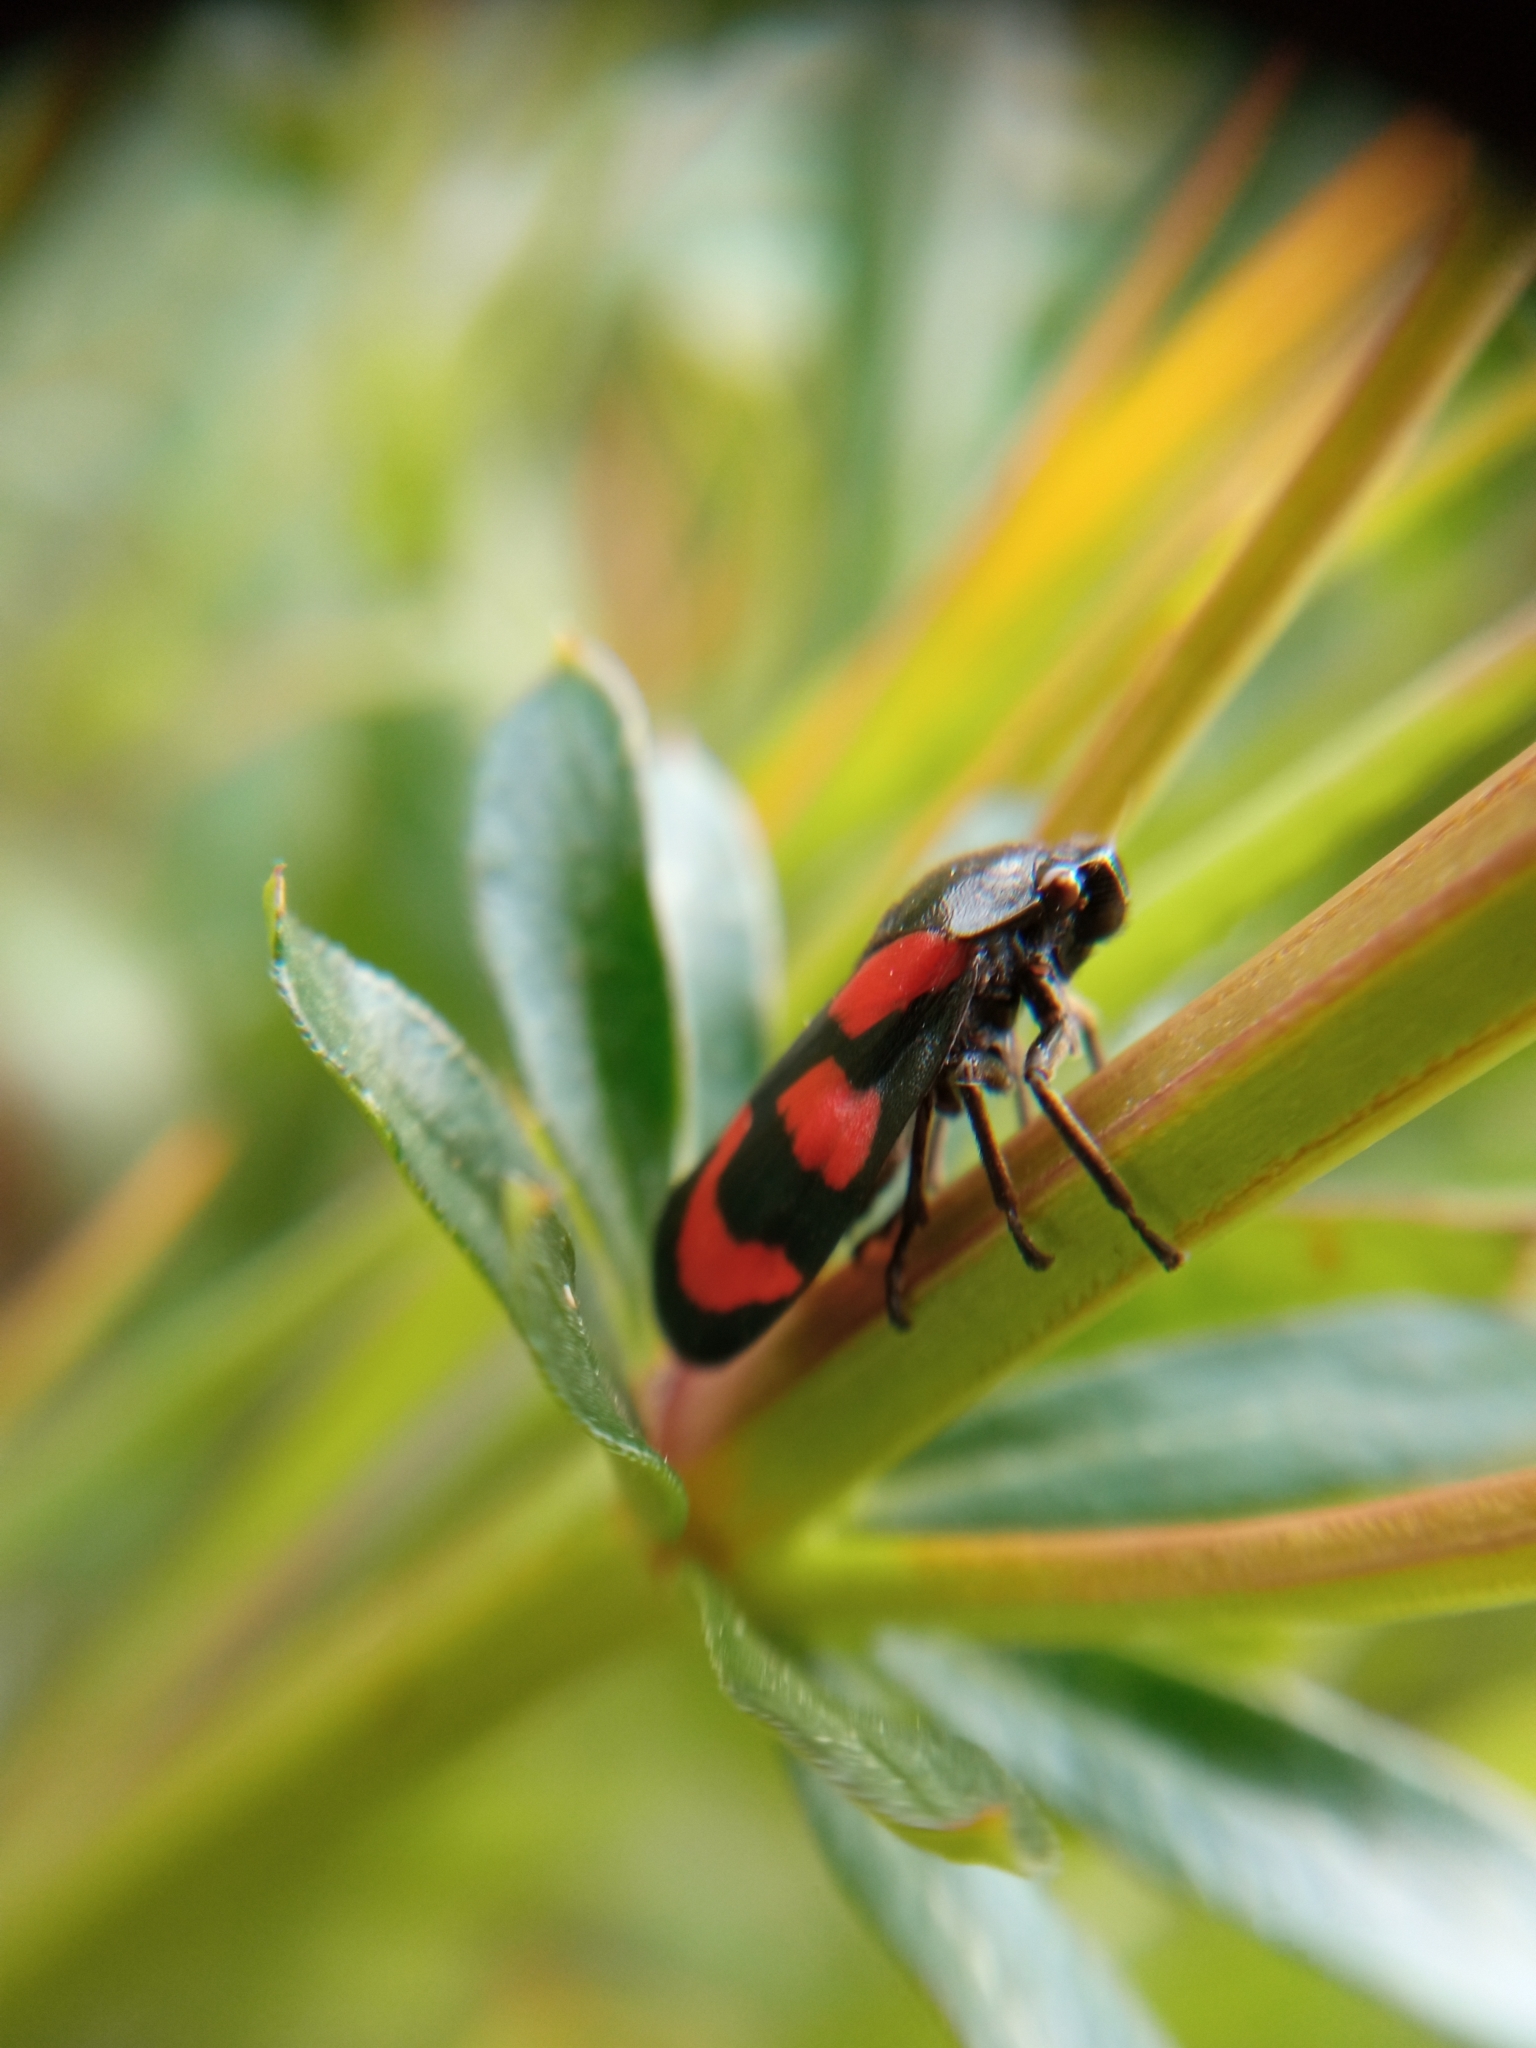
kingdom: Animalia
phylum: Arthropoda
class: Insecta
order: Hemiptera
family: Cercopidae
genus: Cercopis
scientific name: Cercopis vulnerata
